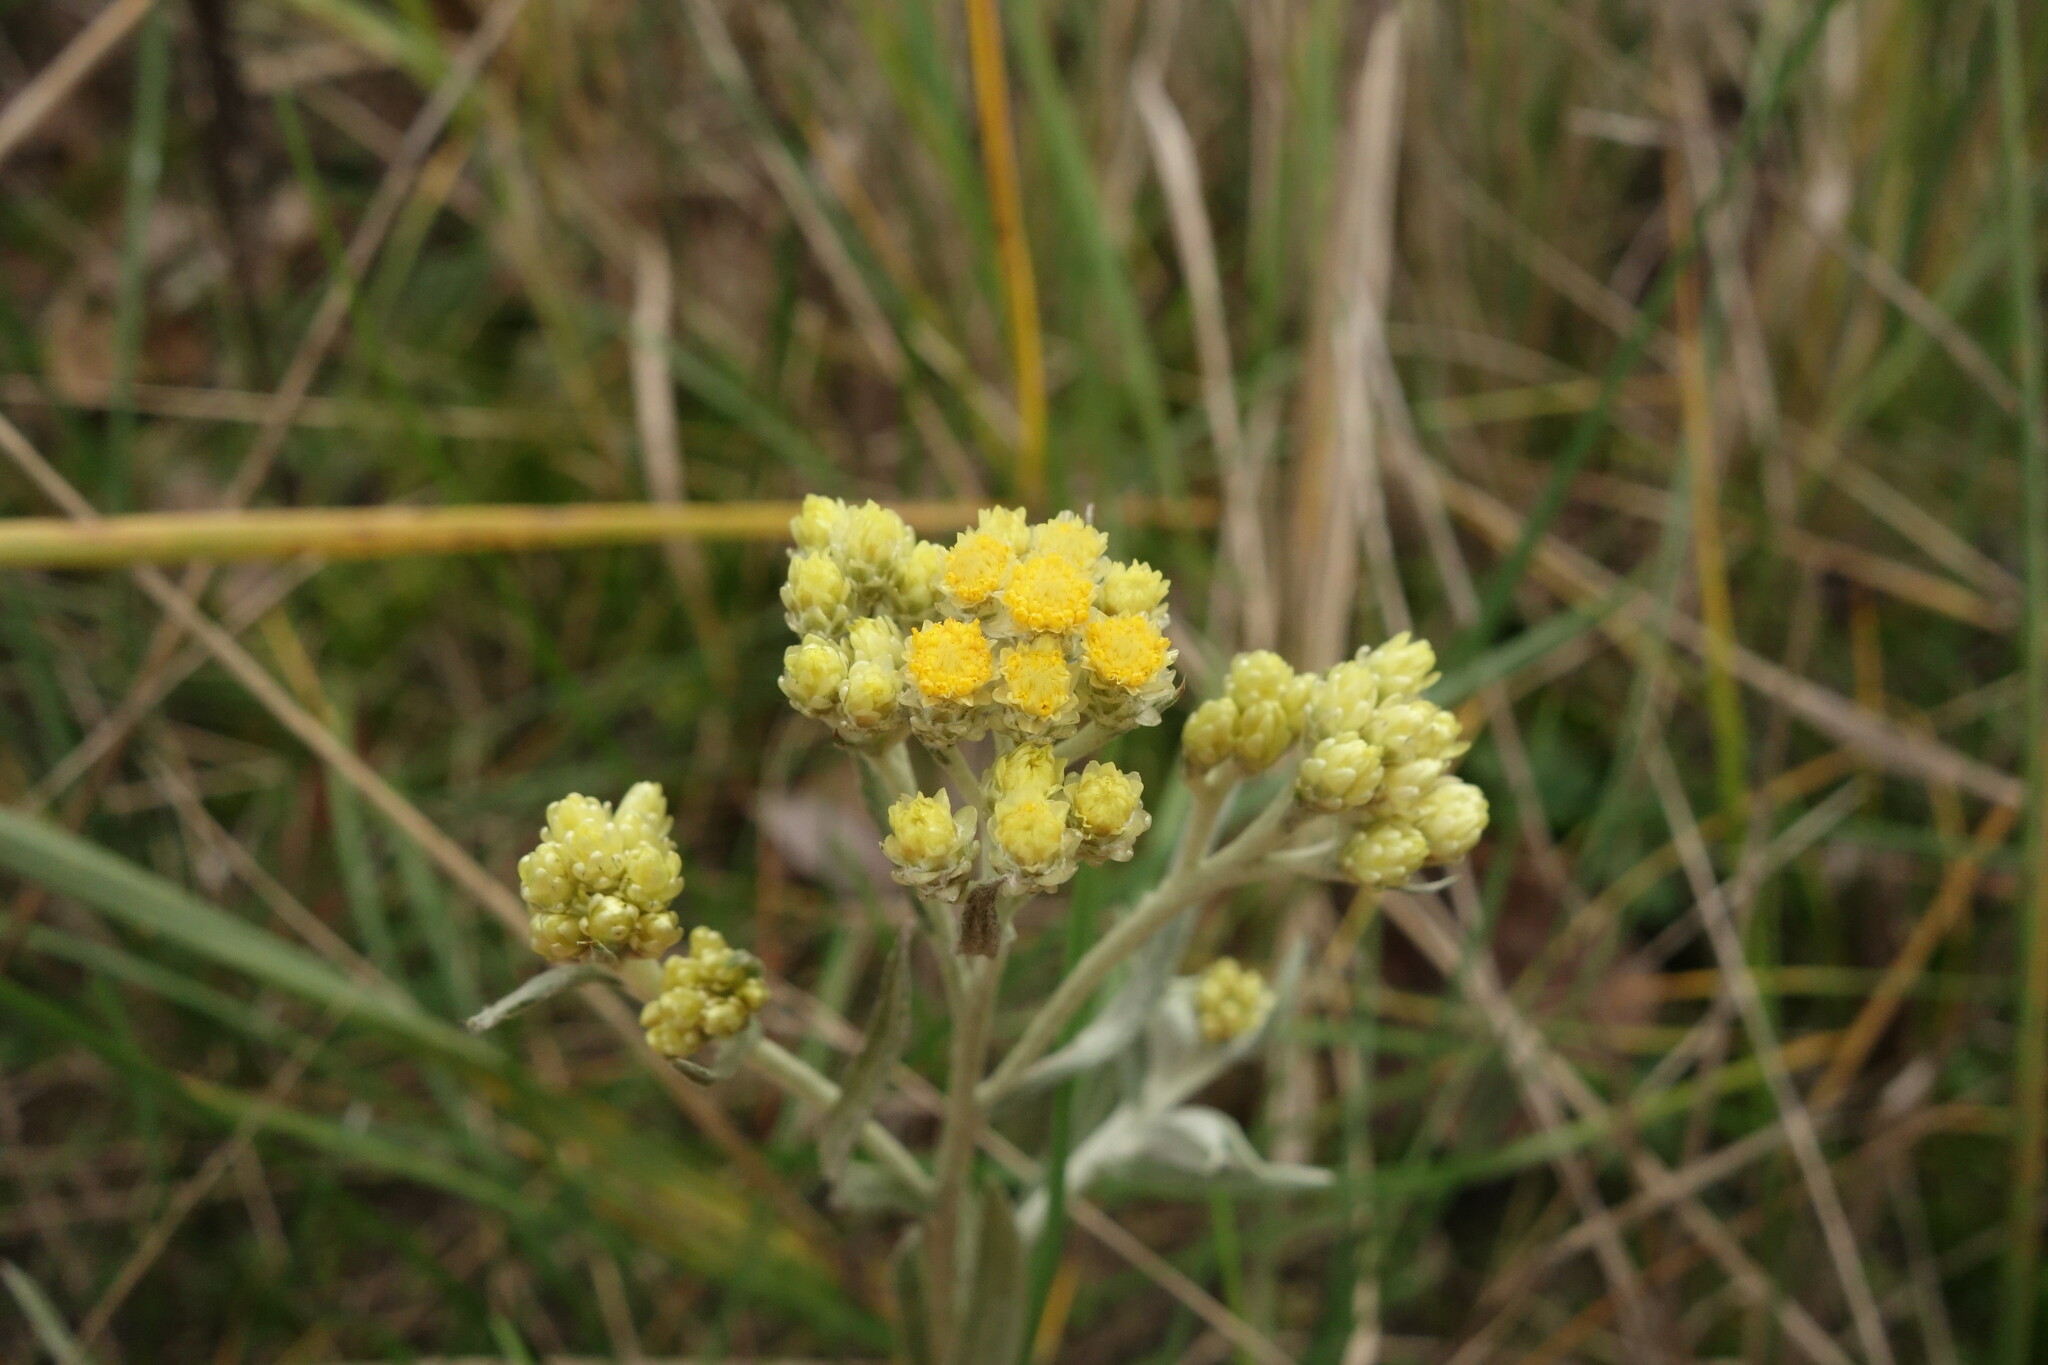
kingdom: Plantae
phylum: Tracheophyta
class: Magnoliopsida
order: Asterales
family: Asteraceae
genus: Helichrysum
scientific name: Helichrysum arenarium
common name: Strawflower
